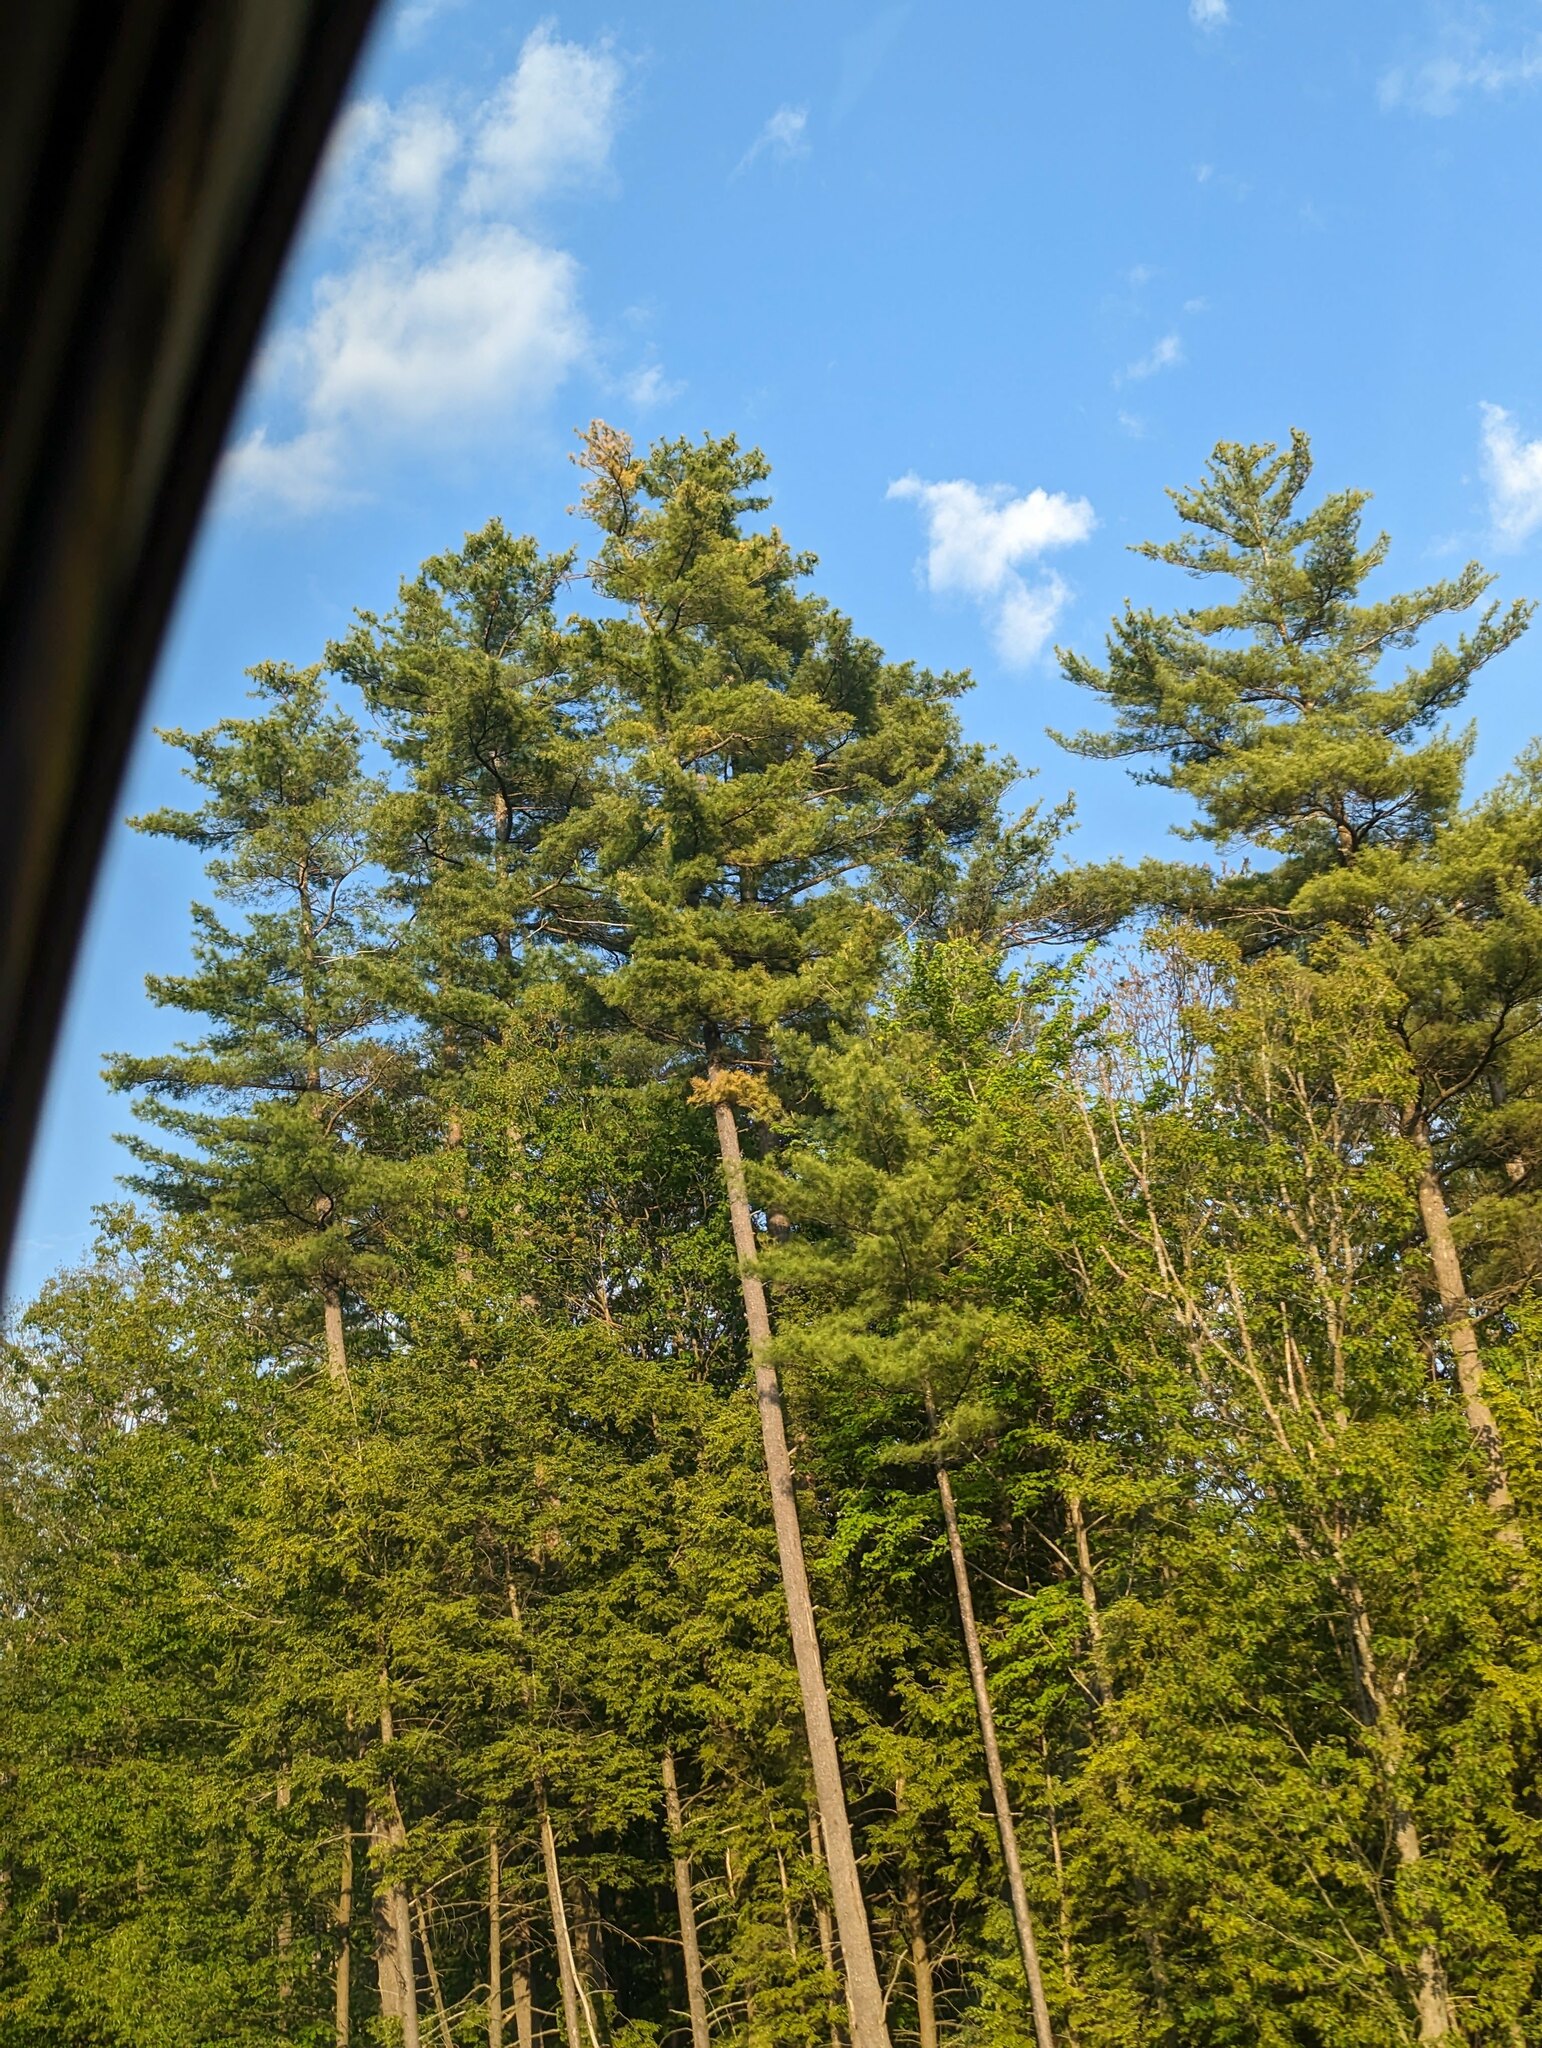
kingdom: Plantae
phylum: Tracheophyta
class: Pinopsida
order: Pinales
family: Pinaceae
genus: Pinus
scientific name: Pinus strobus
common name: Weymouth pine
